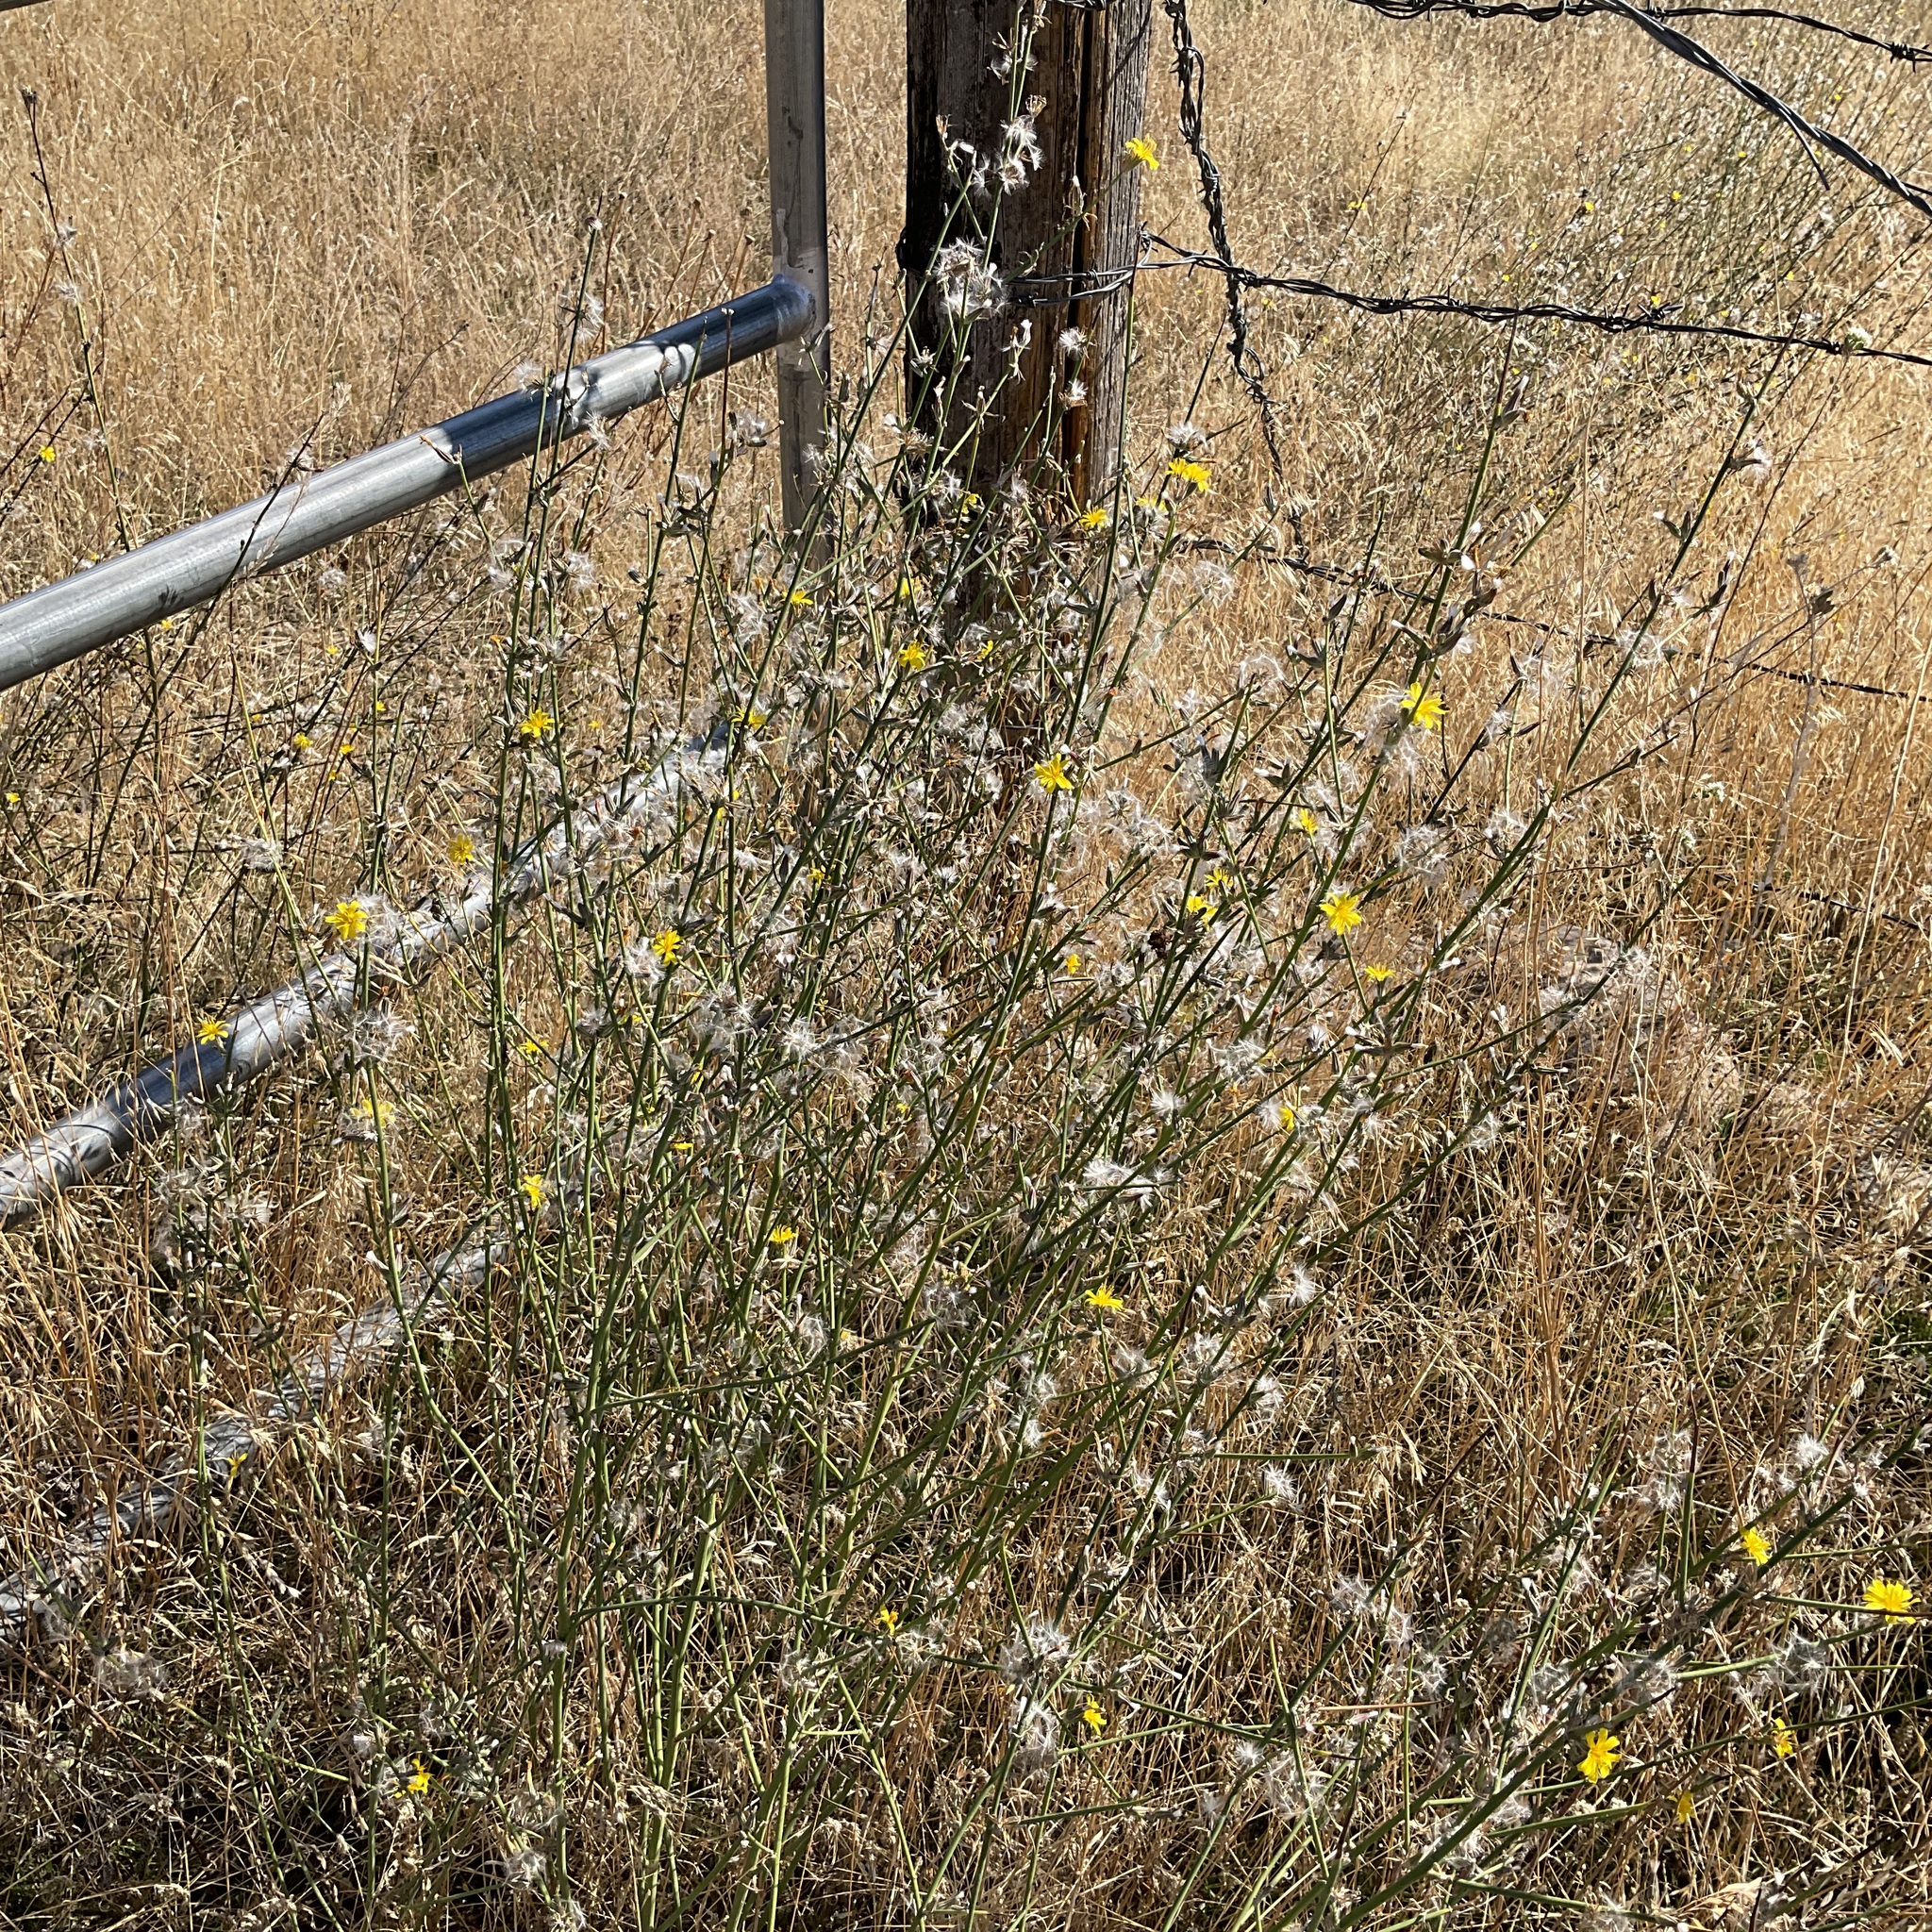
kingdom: Plantae
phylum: Tracheophyta
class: Magnoliopsida
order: Asterales
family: Asteraceae
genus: Chondrilla
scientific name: Chondrilla juncea
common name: Skeleton weed
